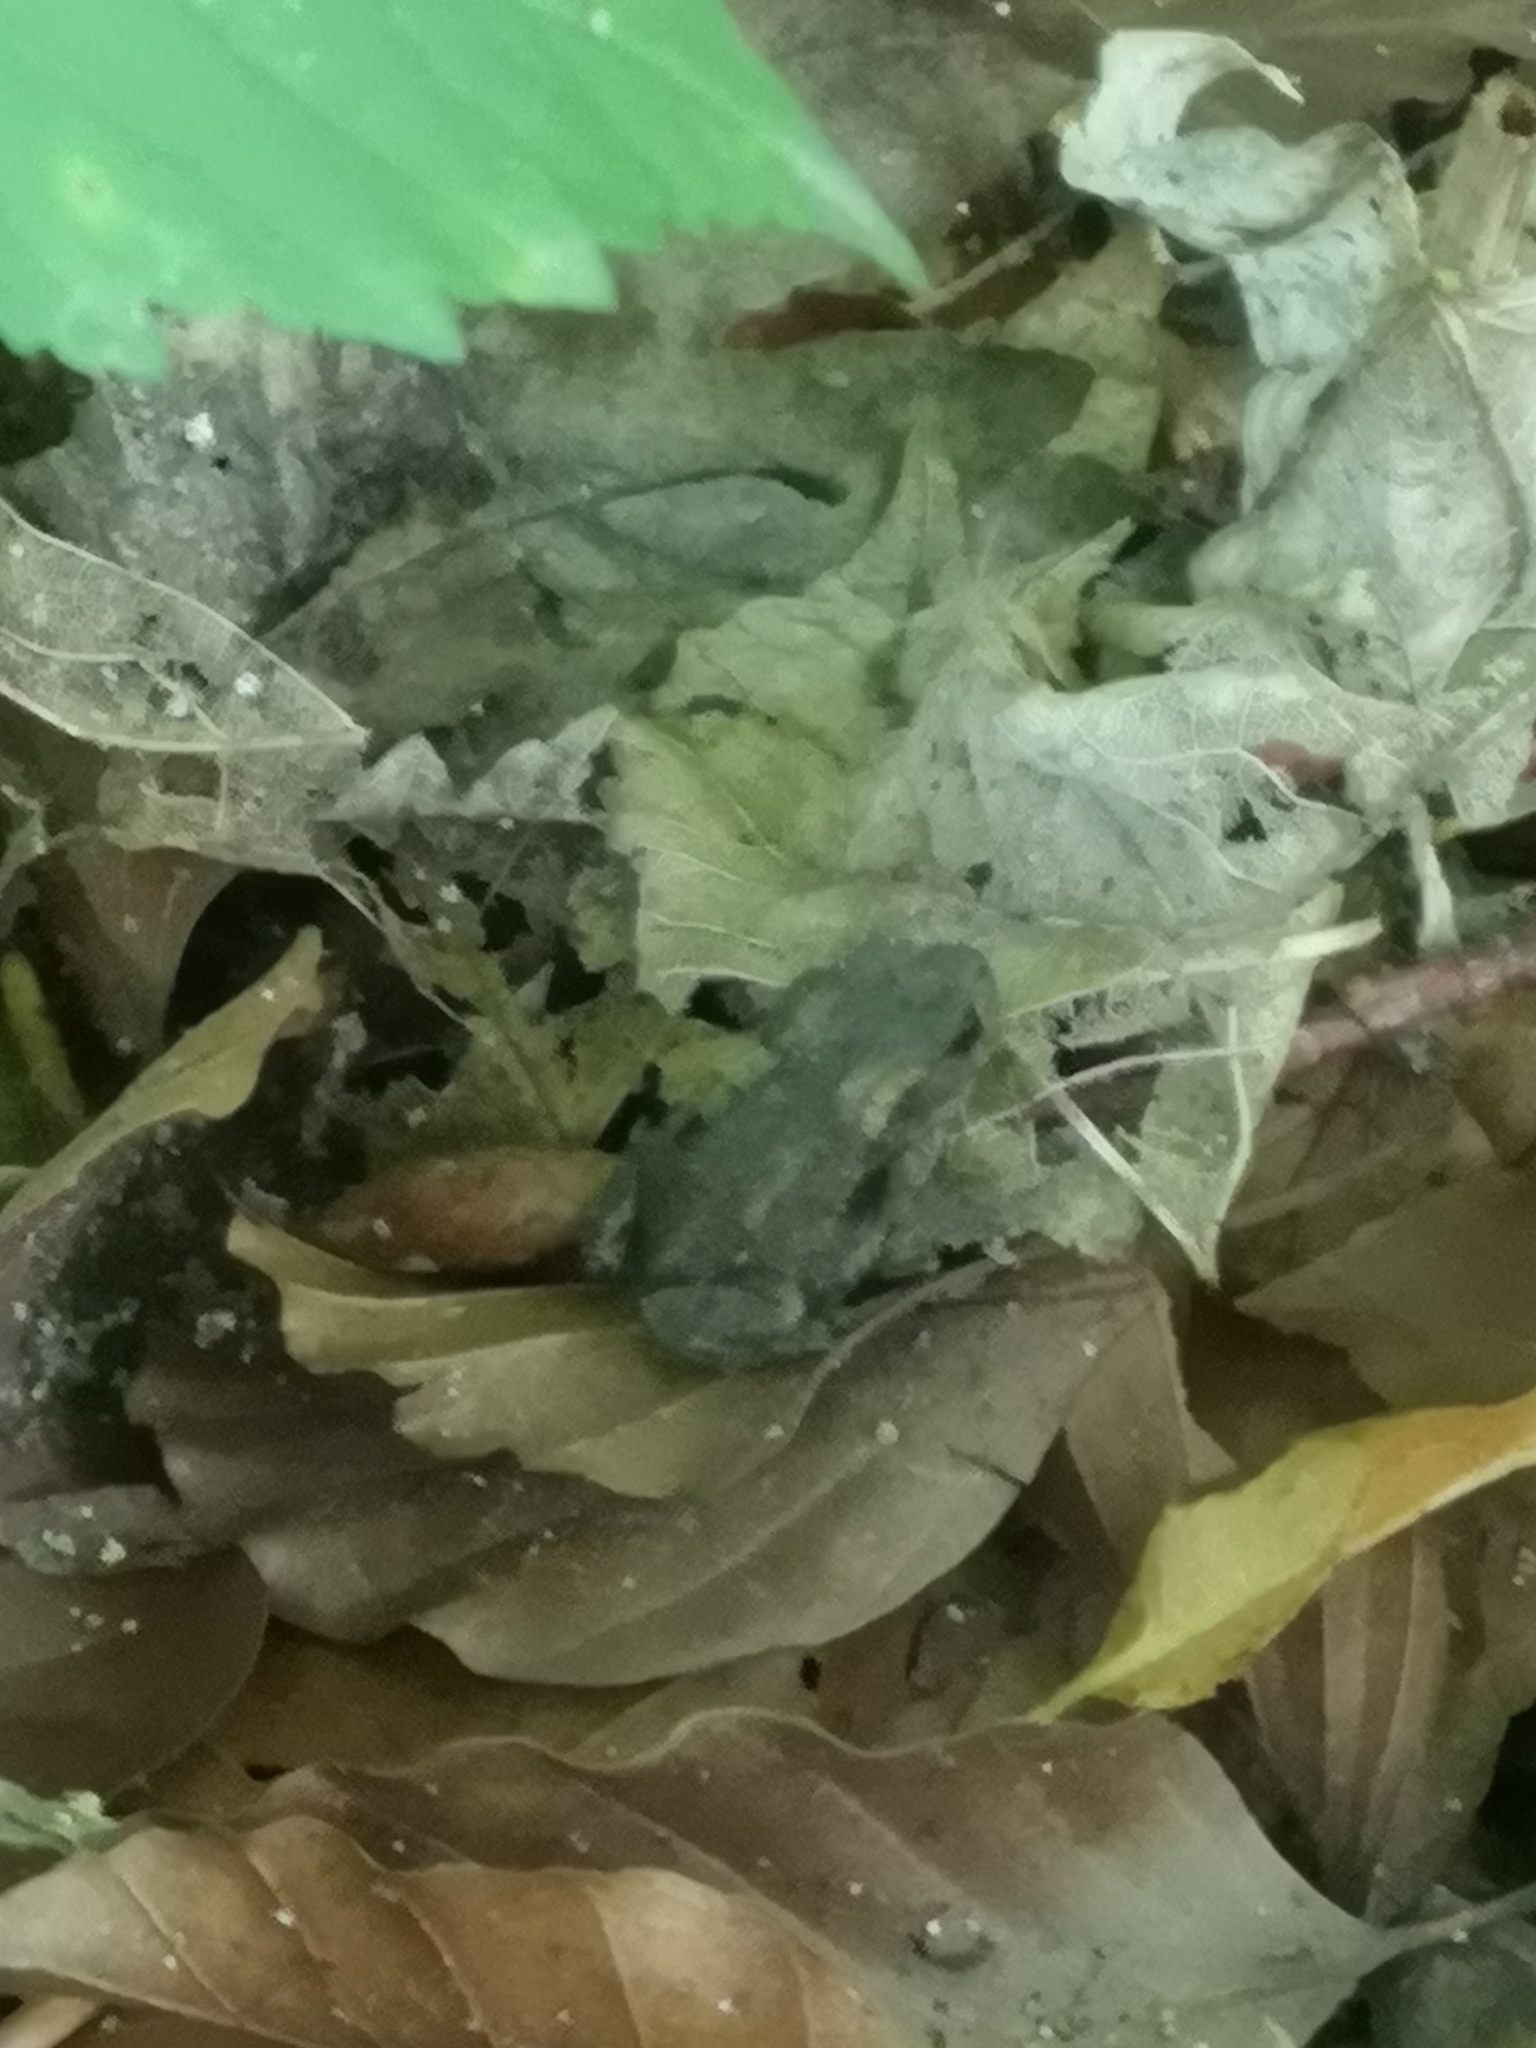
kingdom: Animalia
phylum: Chordata
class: Amphibia
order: Anura
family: Bufonidae
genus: Bufo
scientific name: Bufo bufo
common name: Common toad
